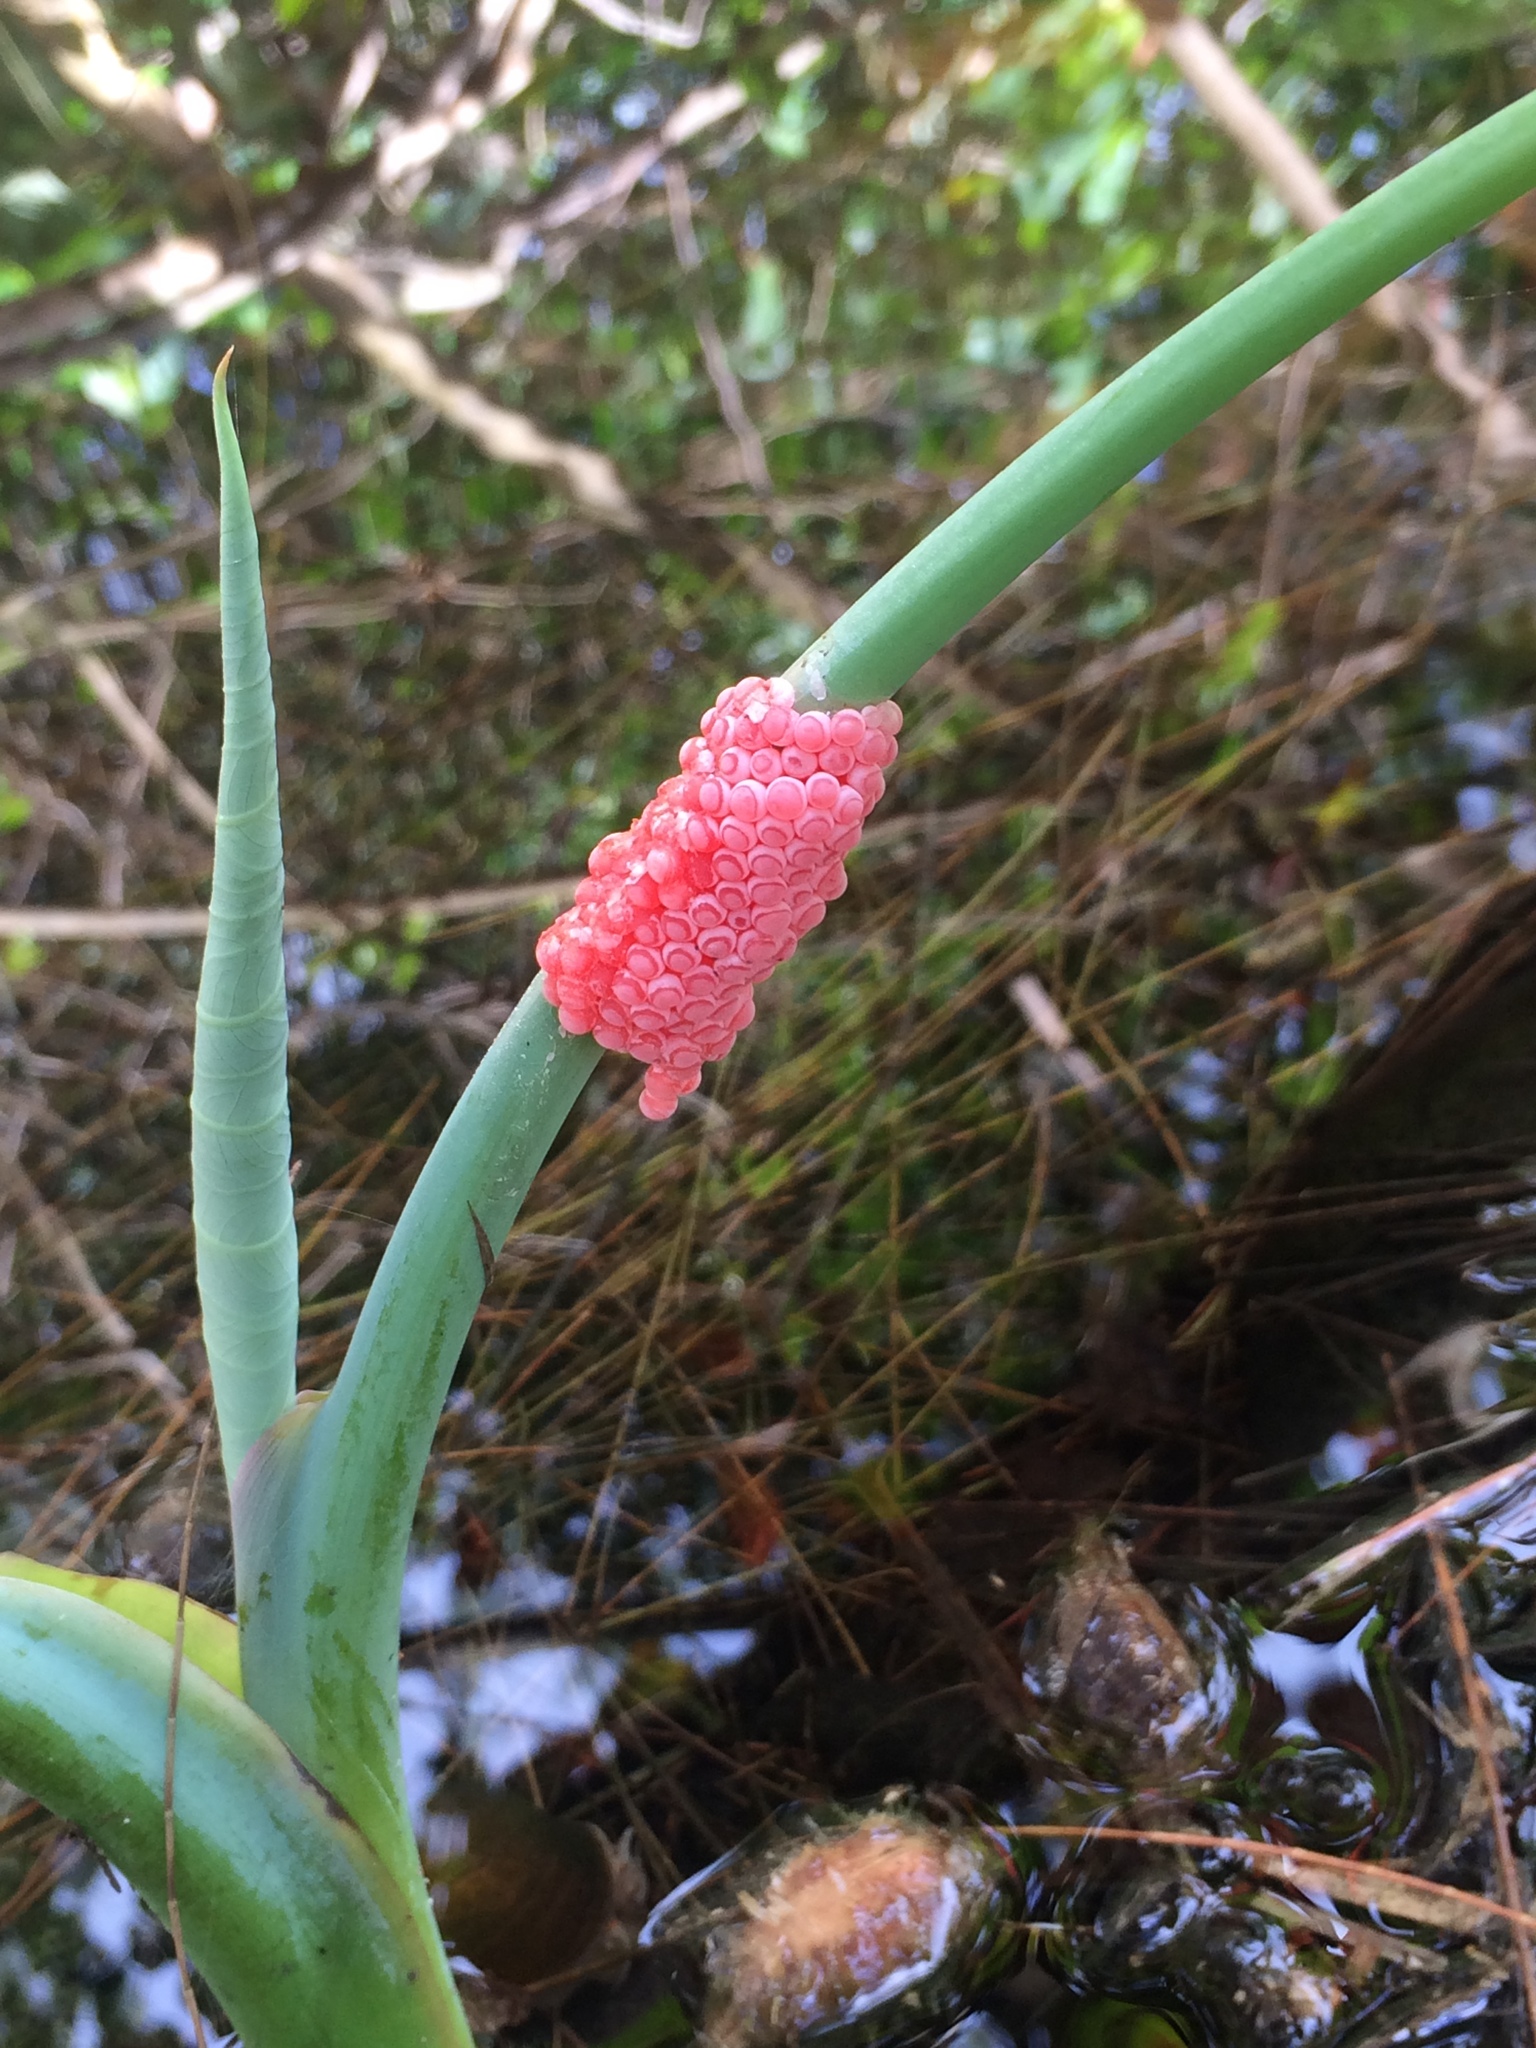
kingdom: Animalia
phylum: Mollusca
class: Gastropoda
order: Architaenioglossa
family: Ampullariidae
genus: Pomacea
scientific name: Pomacea canaliculata
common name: Channeled applesnail
